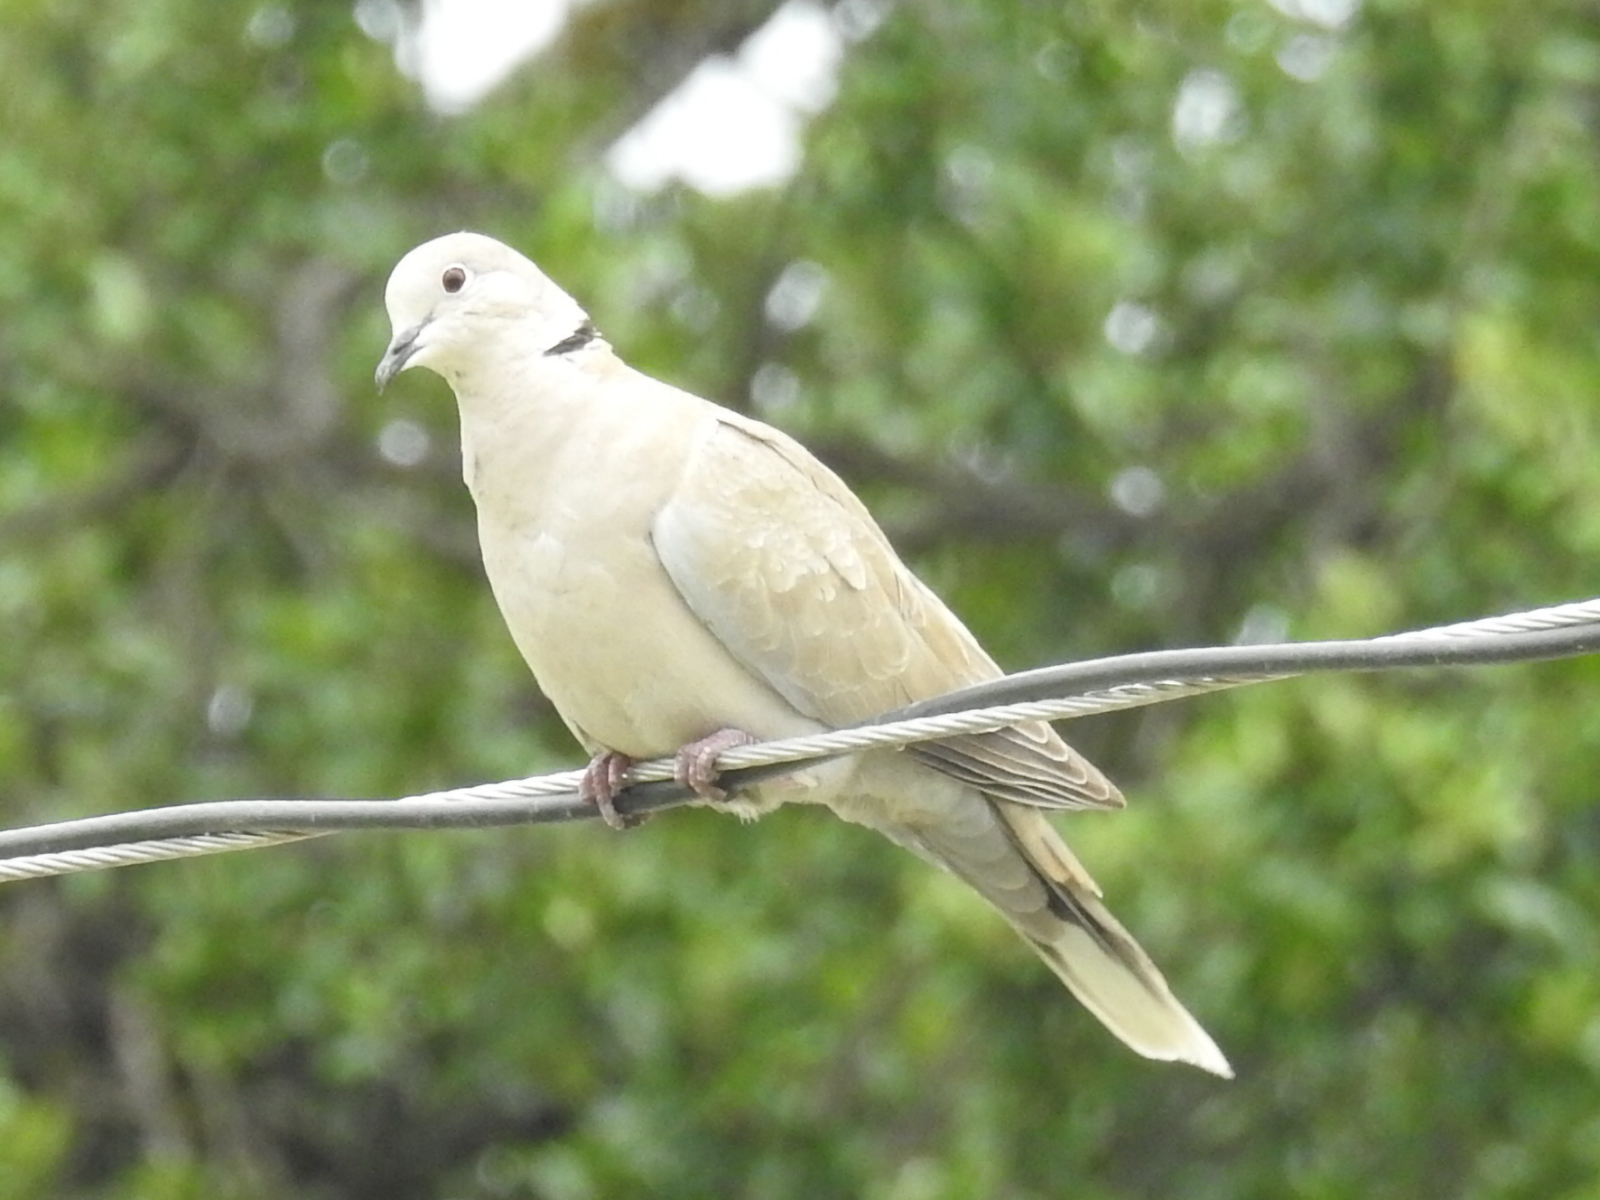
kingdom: Animalia
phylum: Chordata
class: Aves
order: Columbiformes
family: Columbidae
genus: Streptopelia
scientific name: Streptopelia decaocto
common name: Eurasian collared dove
